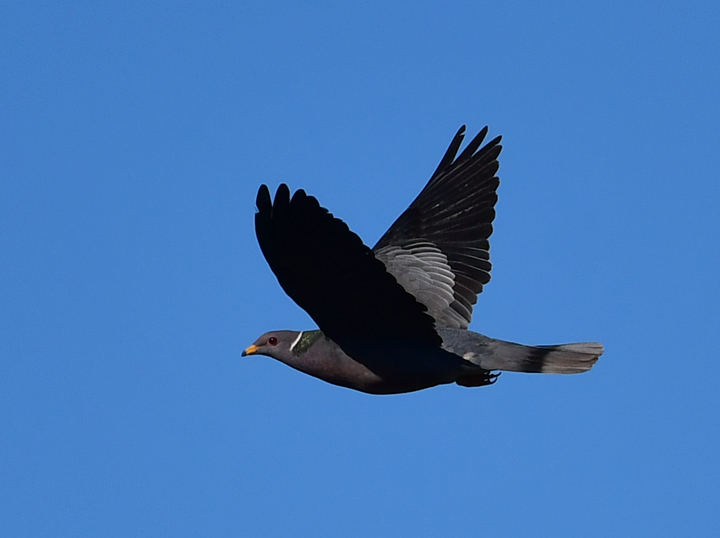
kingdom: Animalia
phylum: Chordata
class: Aves
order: Columbiformes
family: Columbidae
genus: Patagioenas
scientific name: Patagioenas fasciata
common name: Band-tailed pigeon
